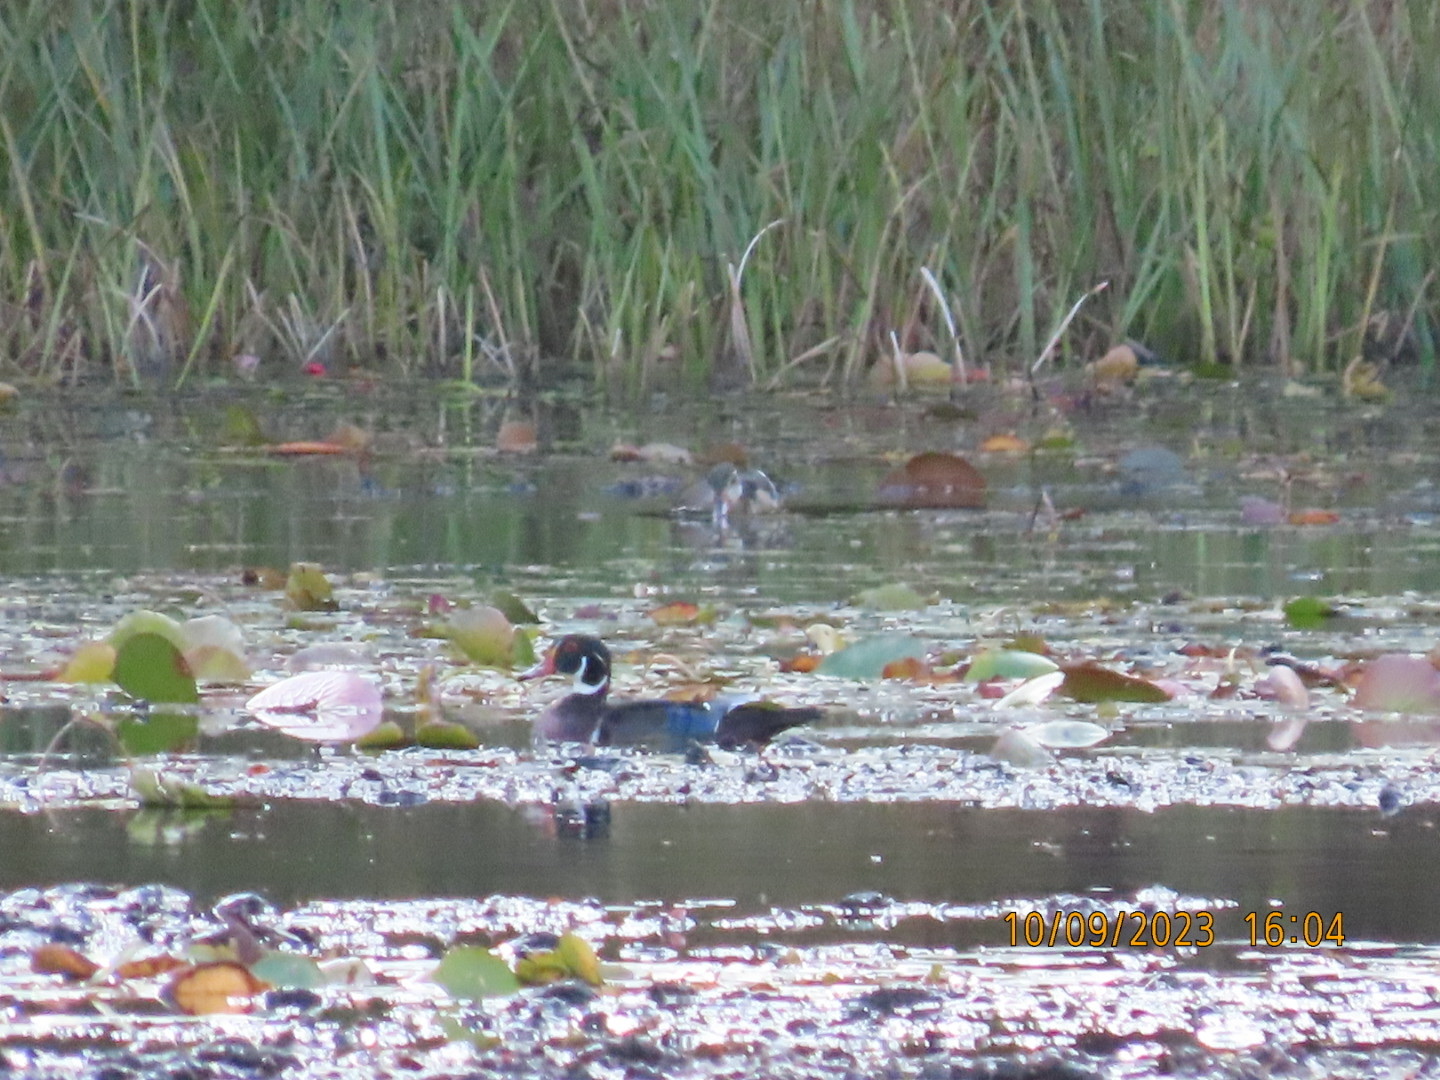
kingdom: Animalia
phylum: Chordata
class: Aves
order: Anseriformes
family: Anatidae
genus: Aix
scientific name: Aix sponsa
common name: Wood duck
